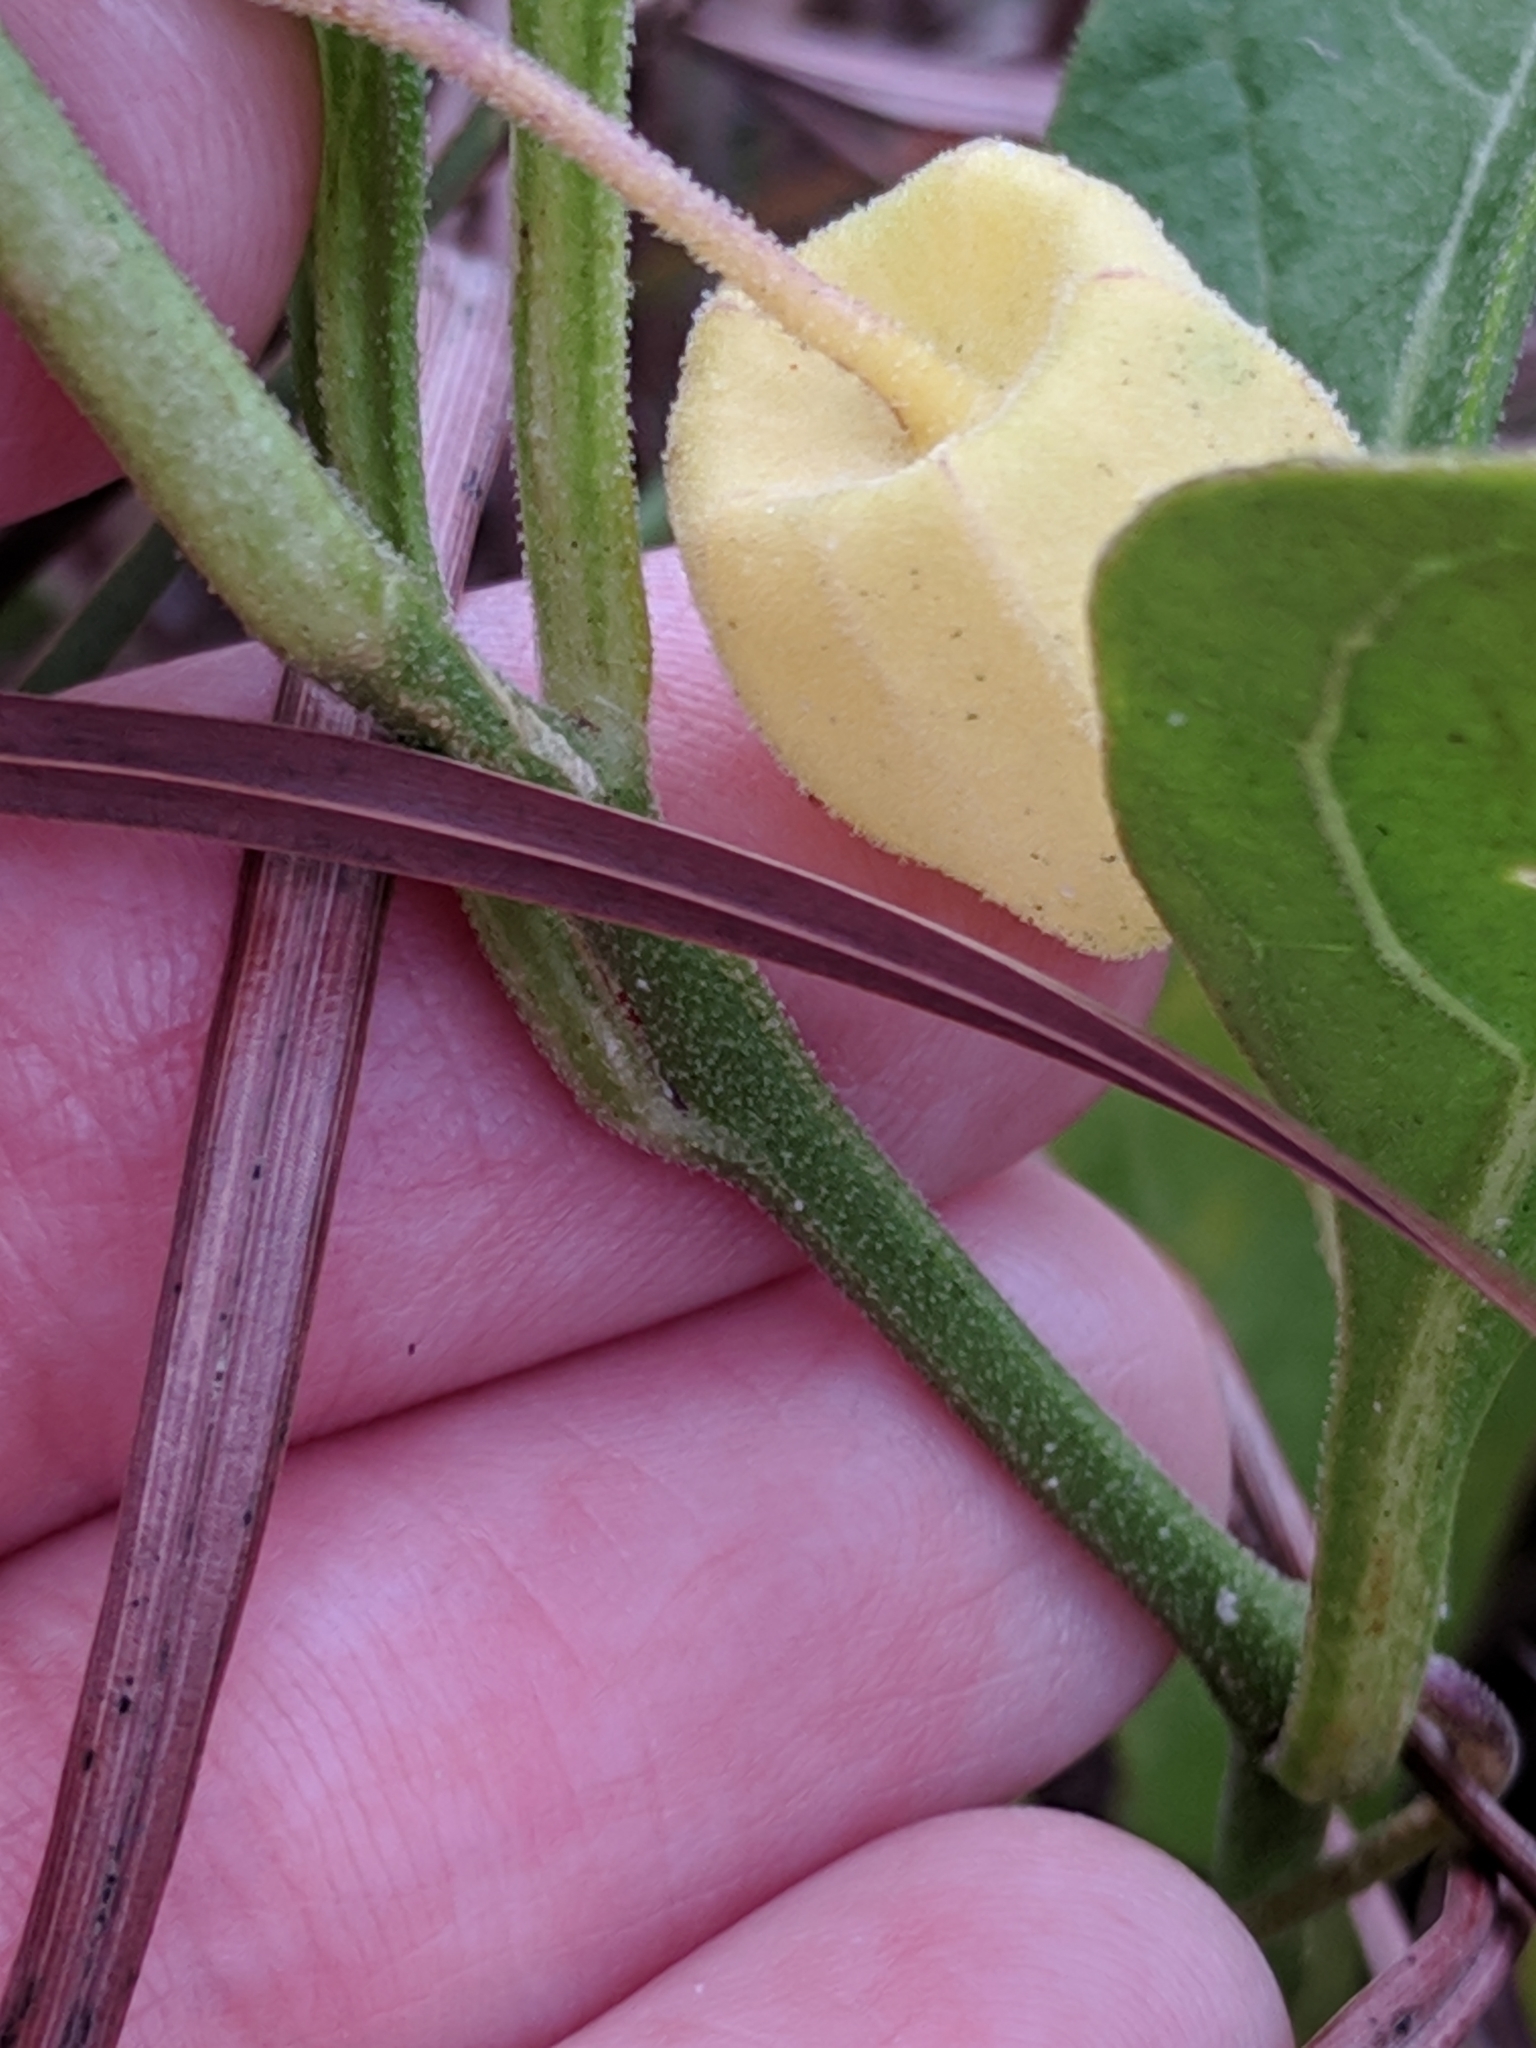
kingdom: Plantae
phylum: Tracheophyta
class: Magnoliopsida
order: Solanales
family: Solanaceae
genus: Physalis
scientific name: Physalis cinerascens
